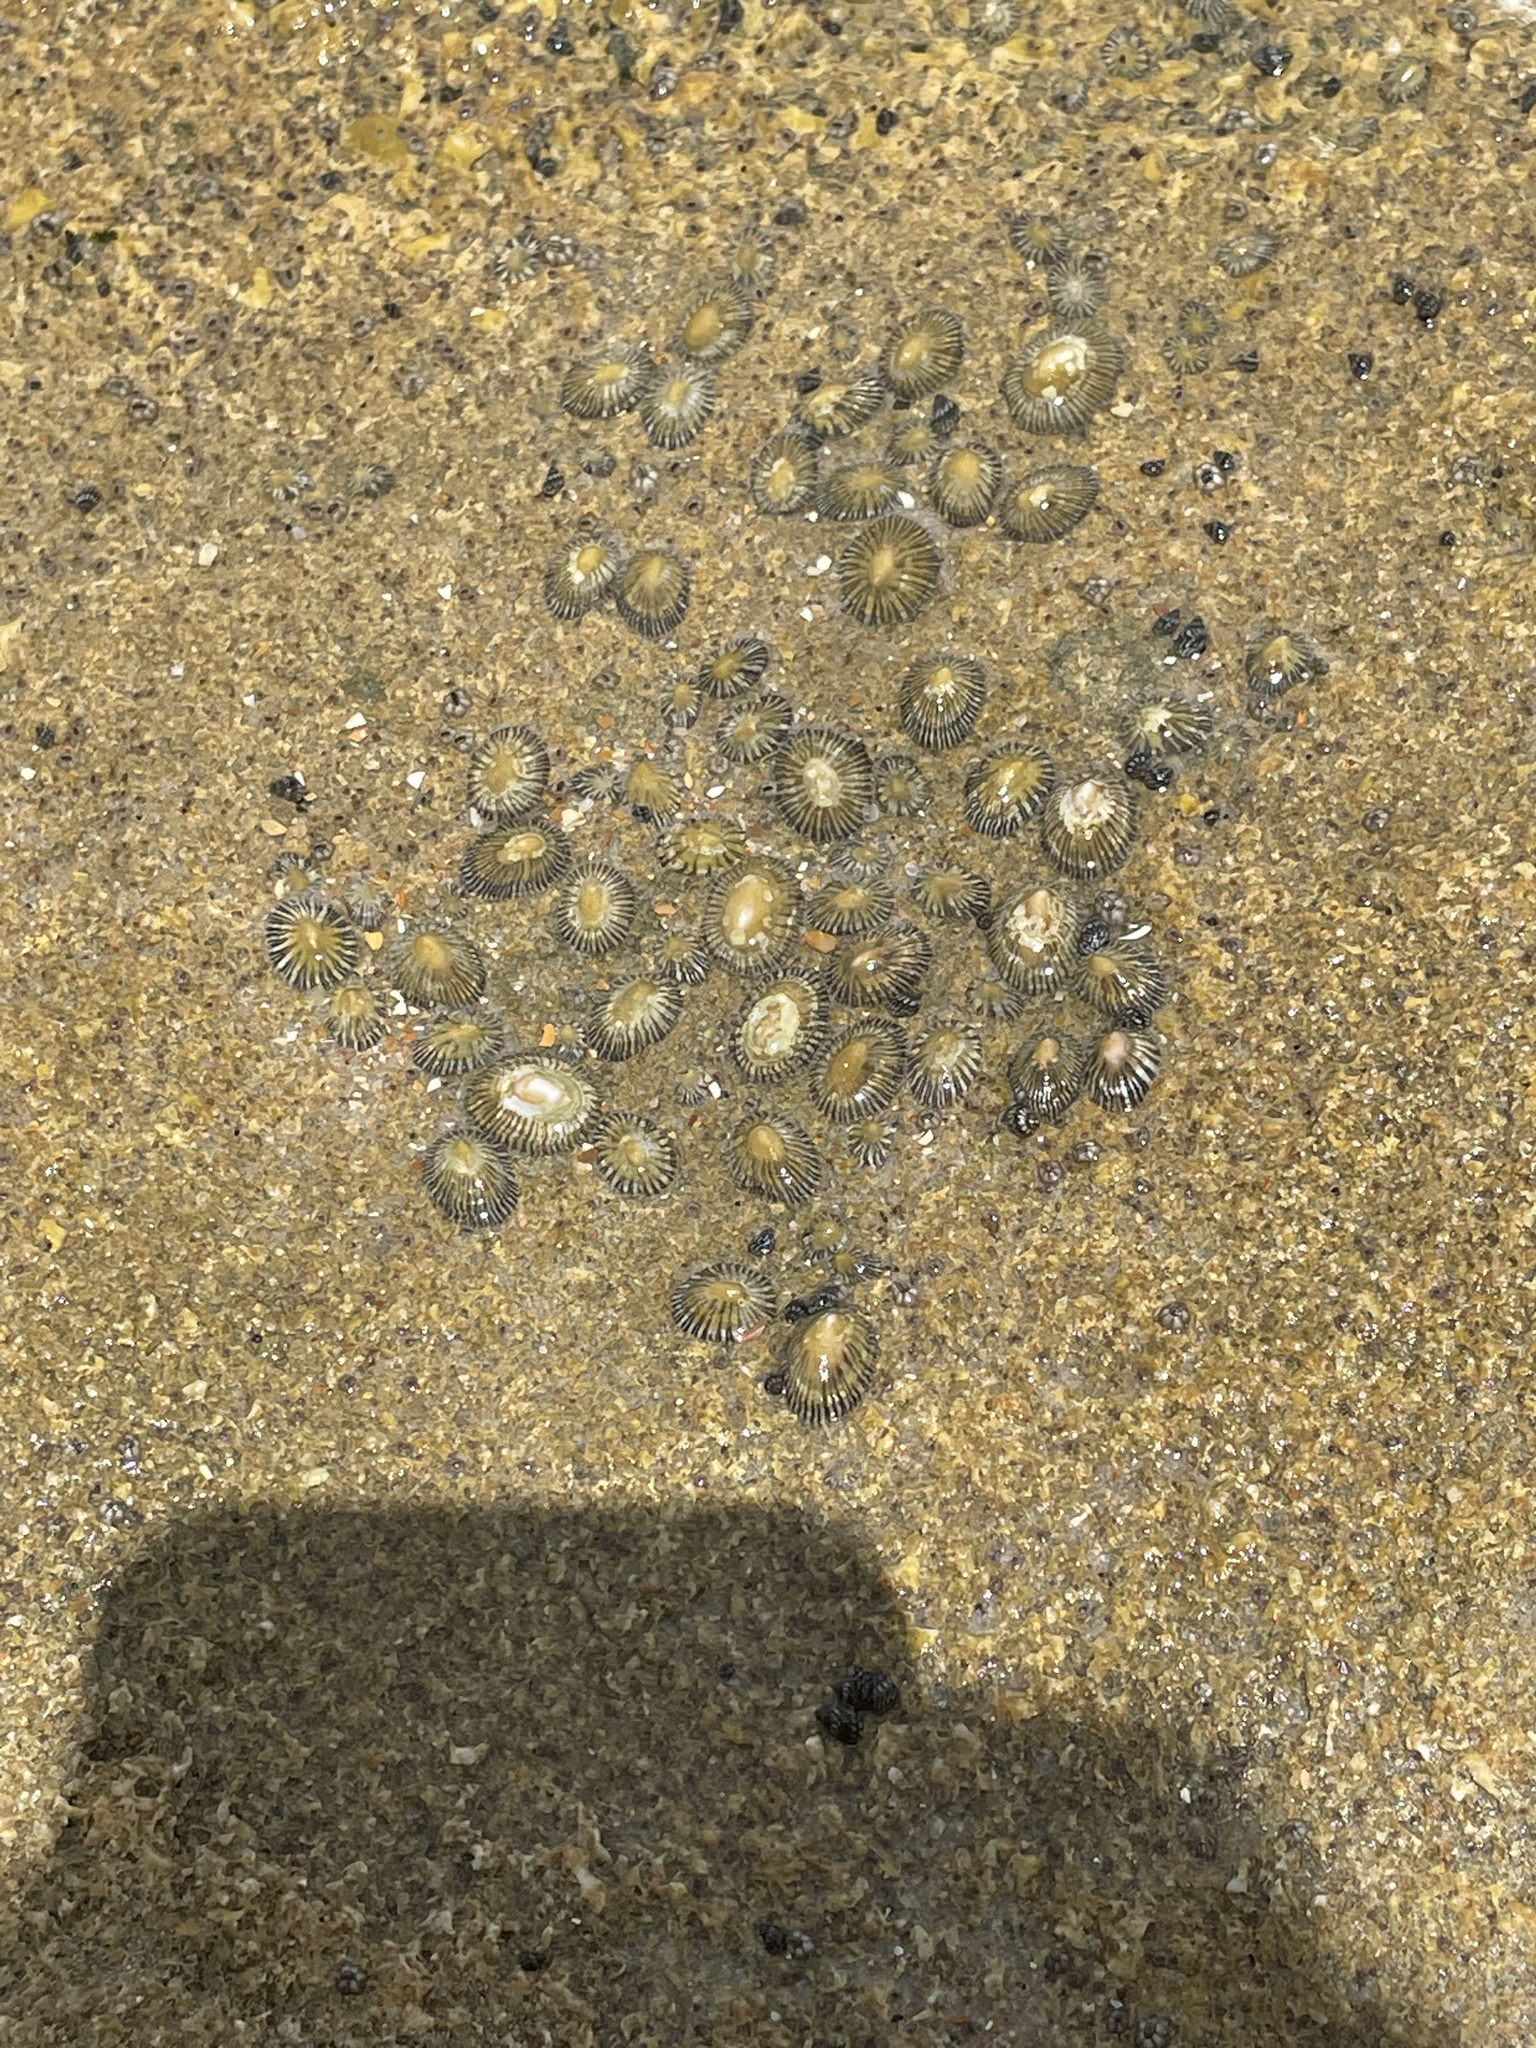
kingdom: Animalia
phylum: Mollusca
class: Gastropoda
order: Siphonariida
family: Siphonariidae
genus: Siphonaria
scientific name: Siphonaria naufragum
